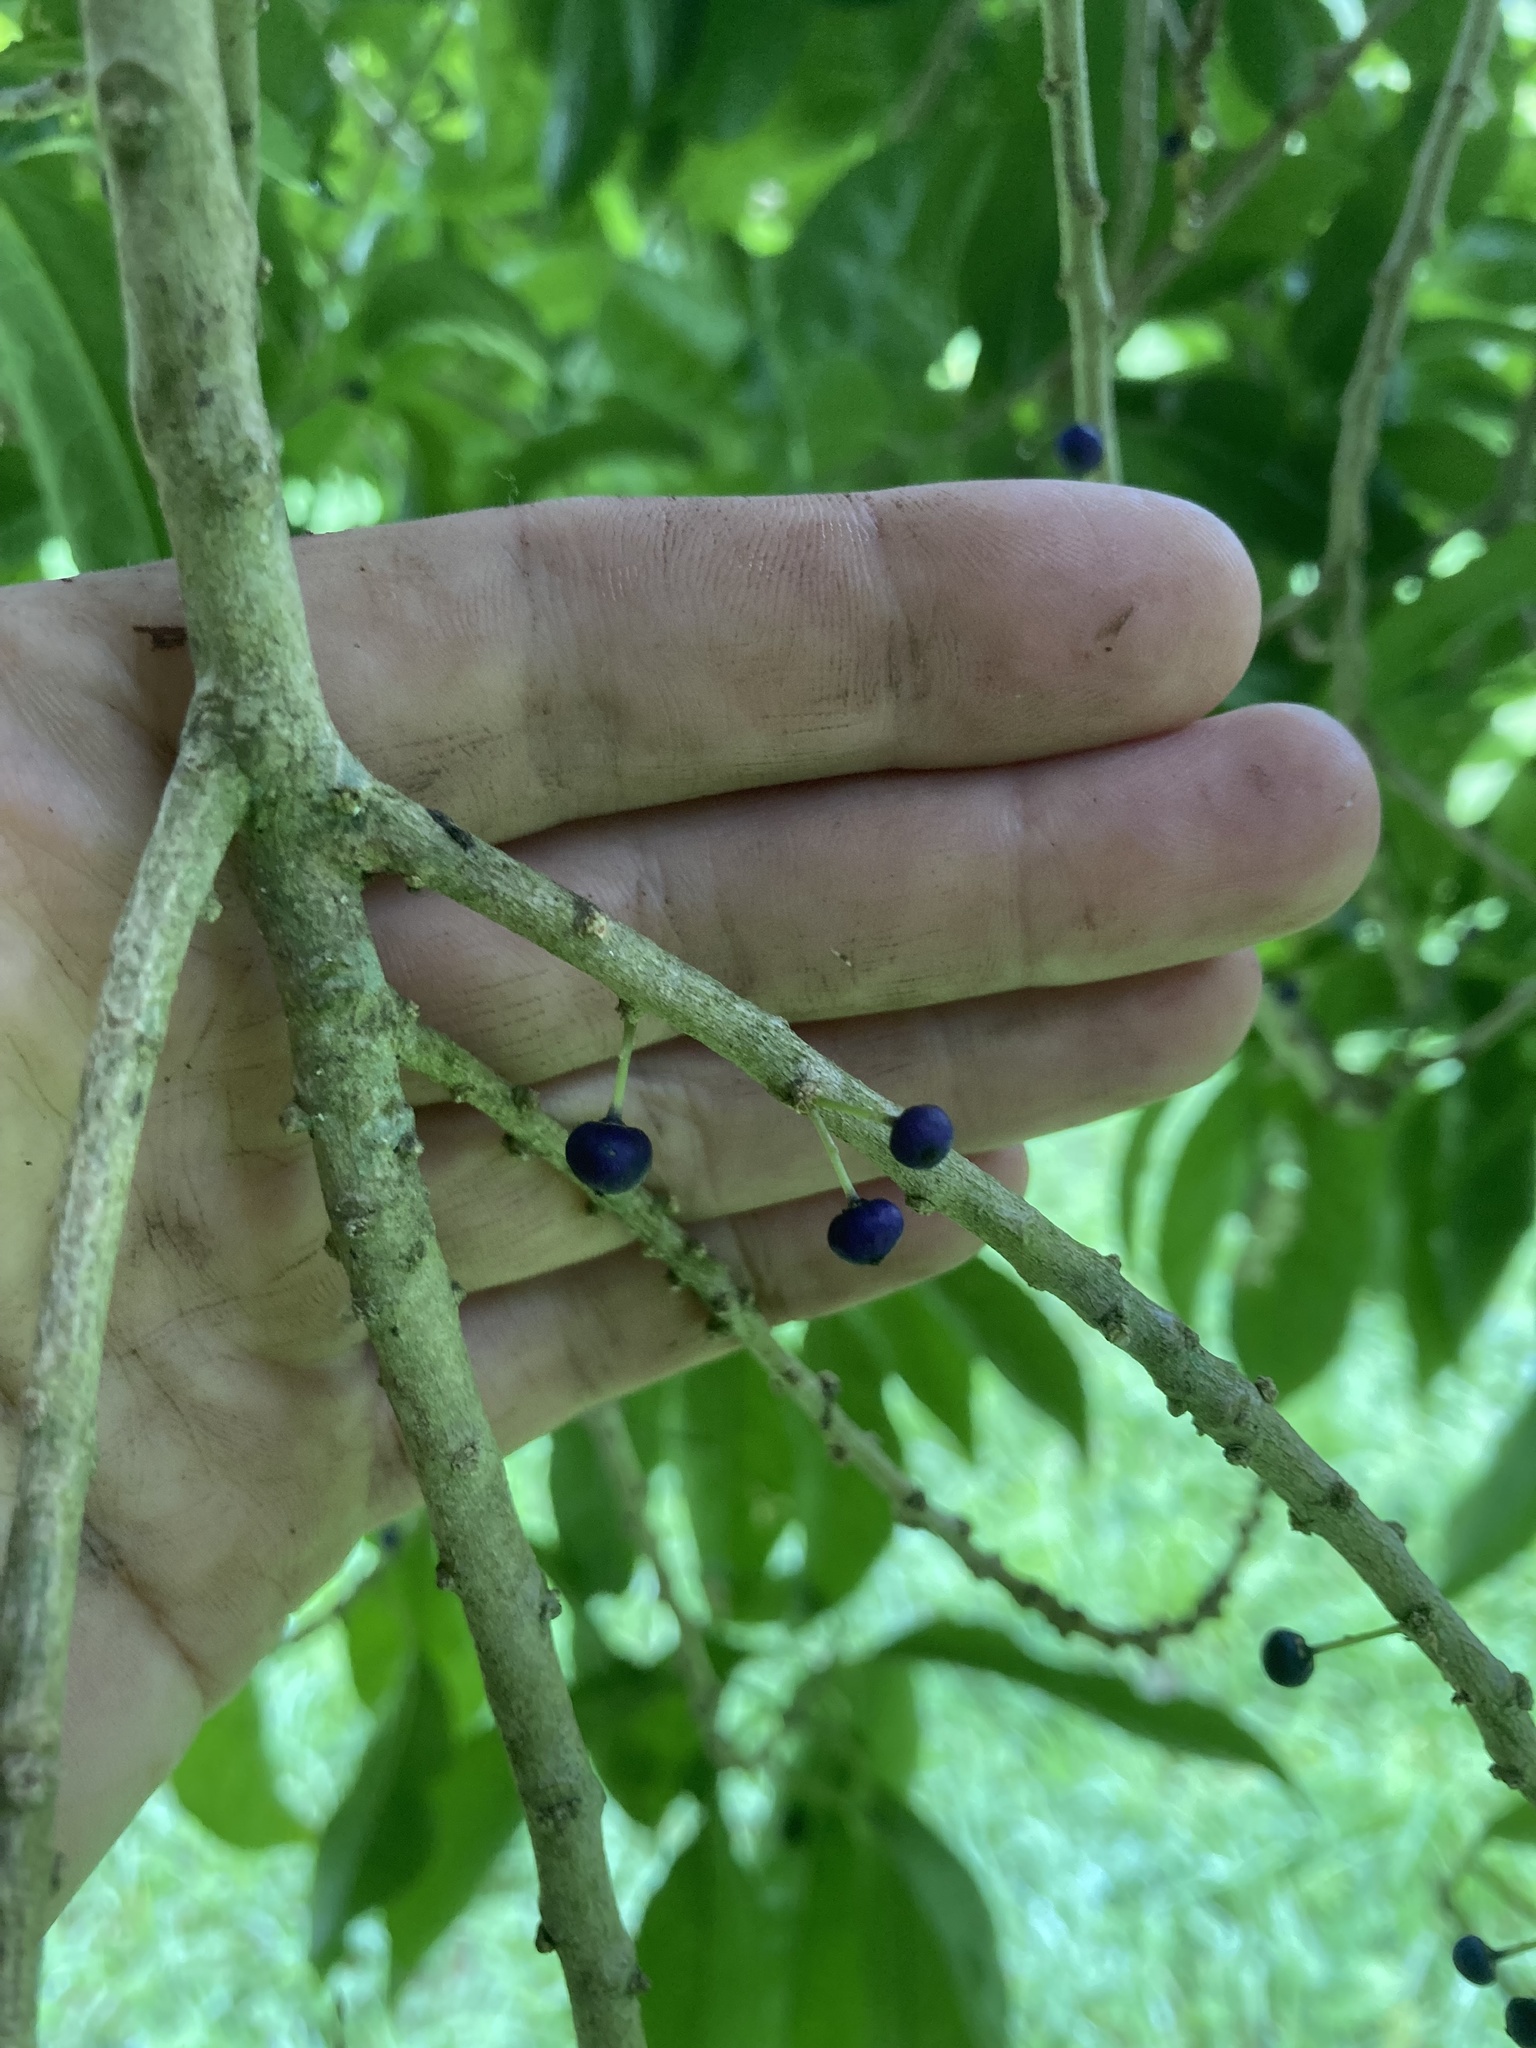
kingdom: Plantae
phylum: Tracheophyta
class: Magnoliopsida
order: Malpighiales
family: Violaceae
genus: Melicytus
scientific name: Melicytus ramiflorus
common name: Mahoe
